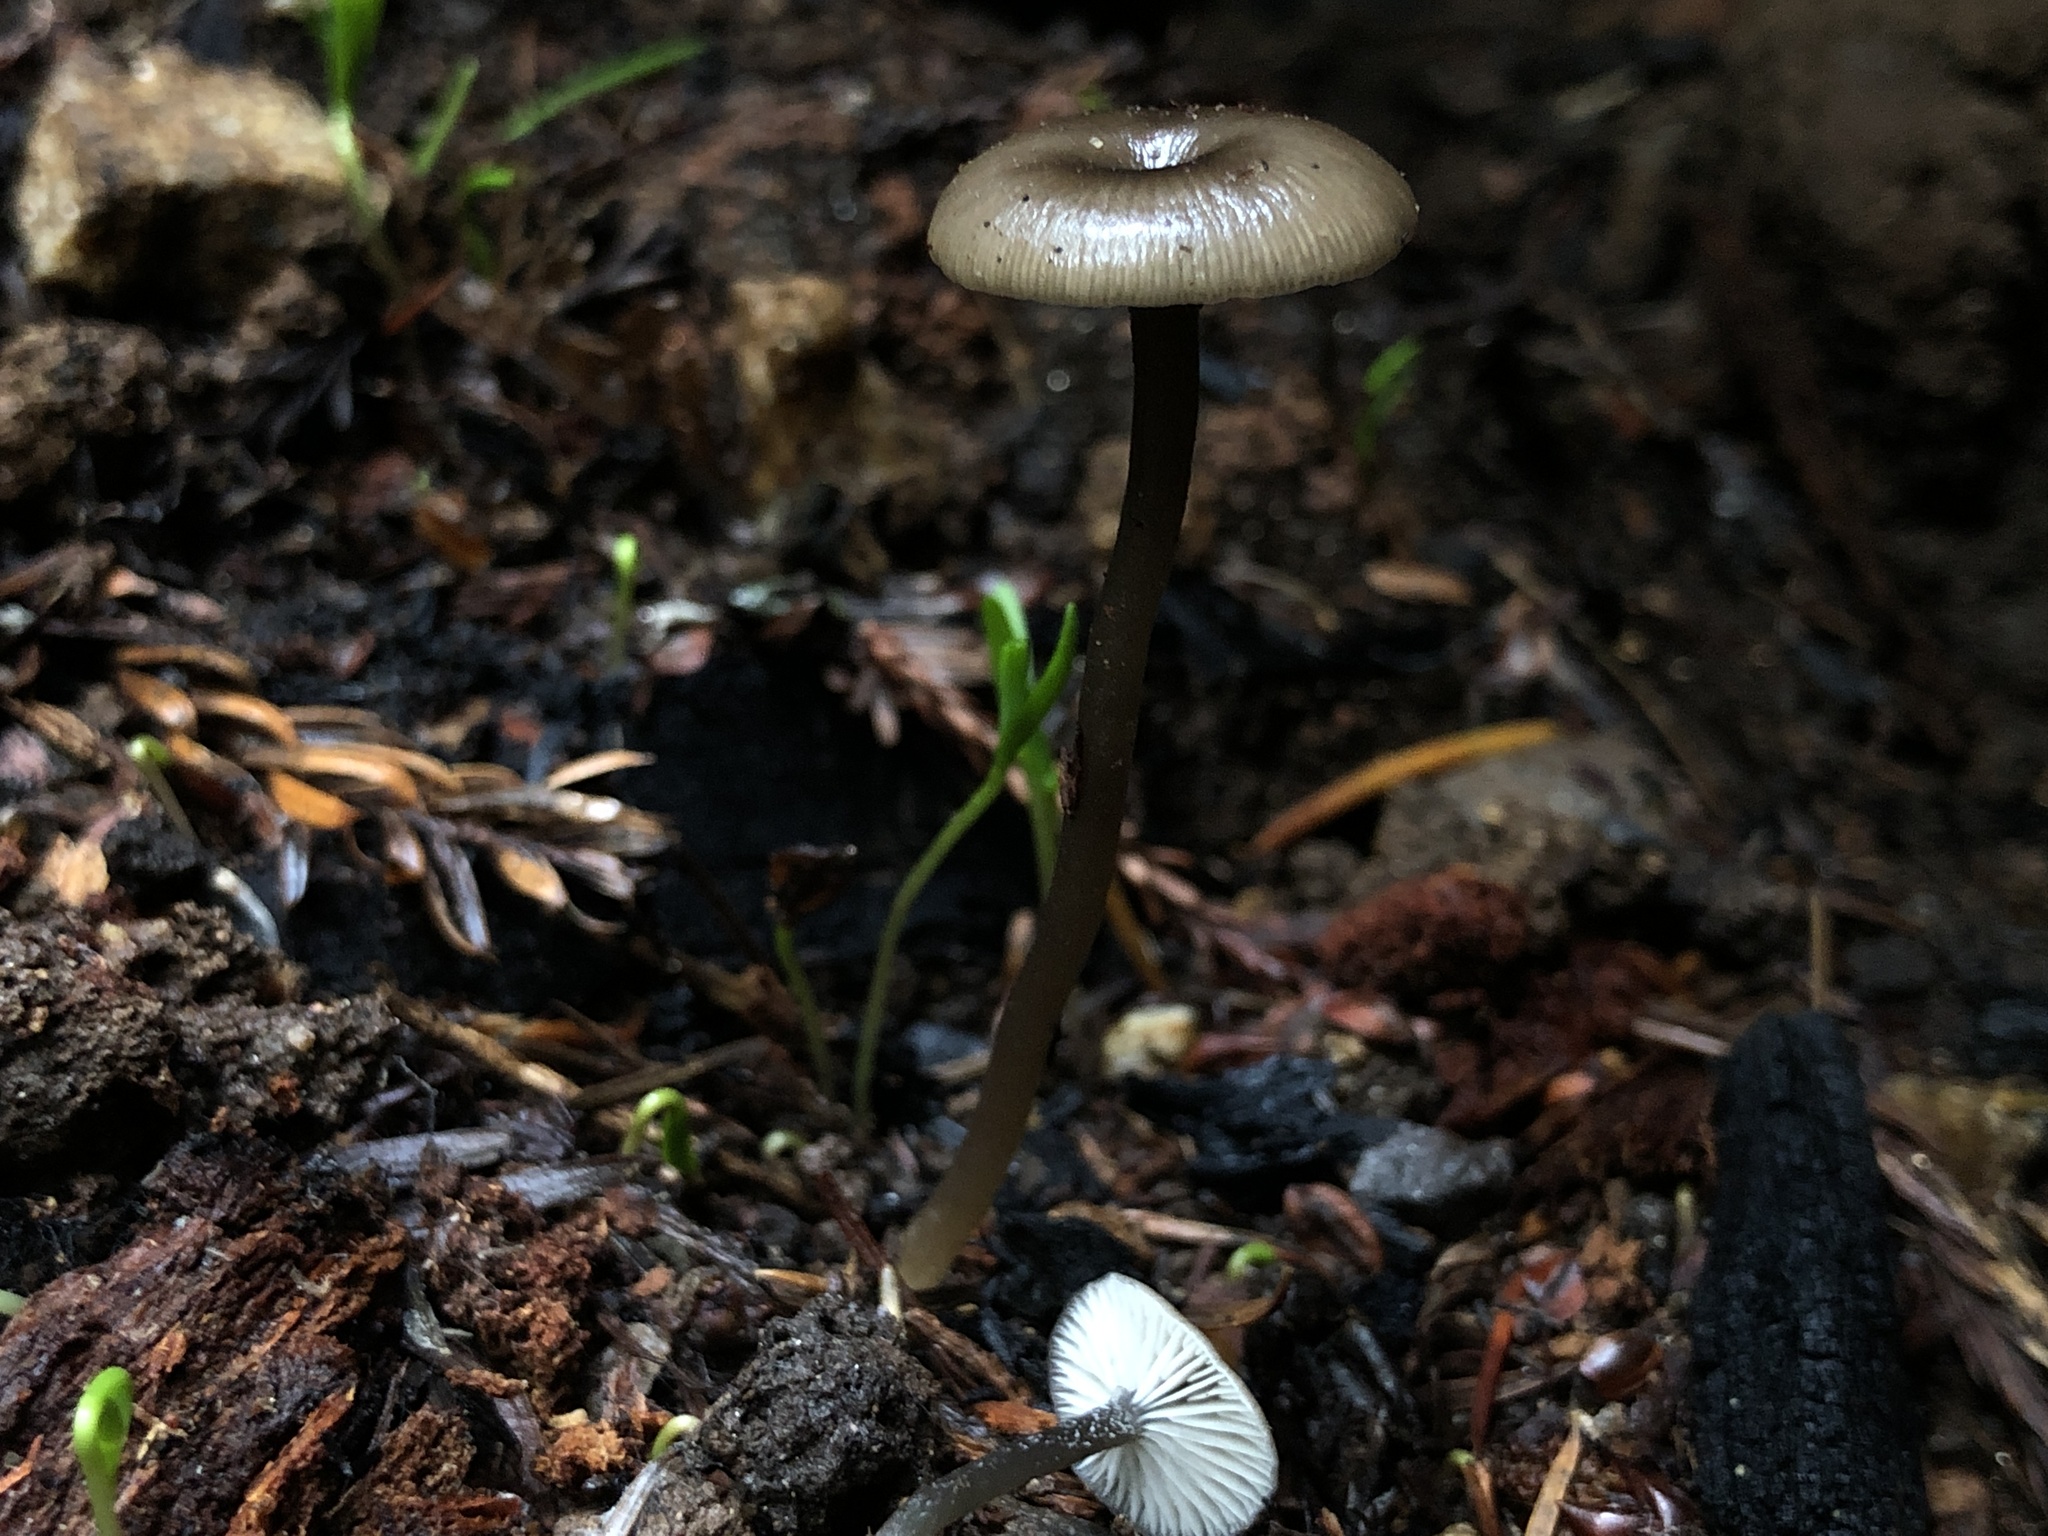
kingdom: Fungi
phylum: Basidiomycota
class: Agaricomycetes
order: Agaricales
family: Tricholomataceae
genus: Myxomphalia
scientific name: Myxomphalia maura
